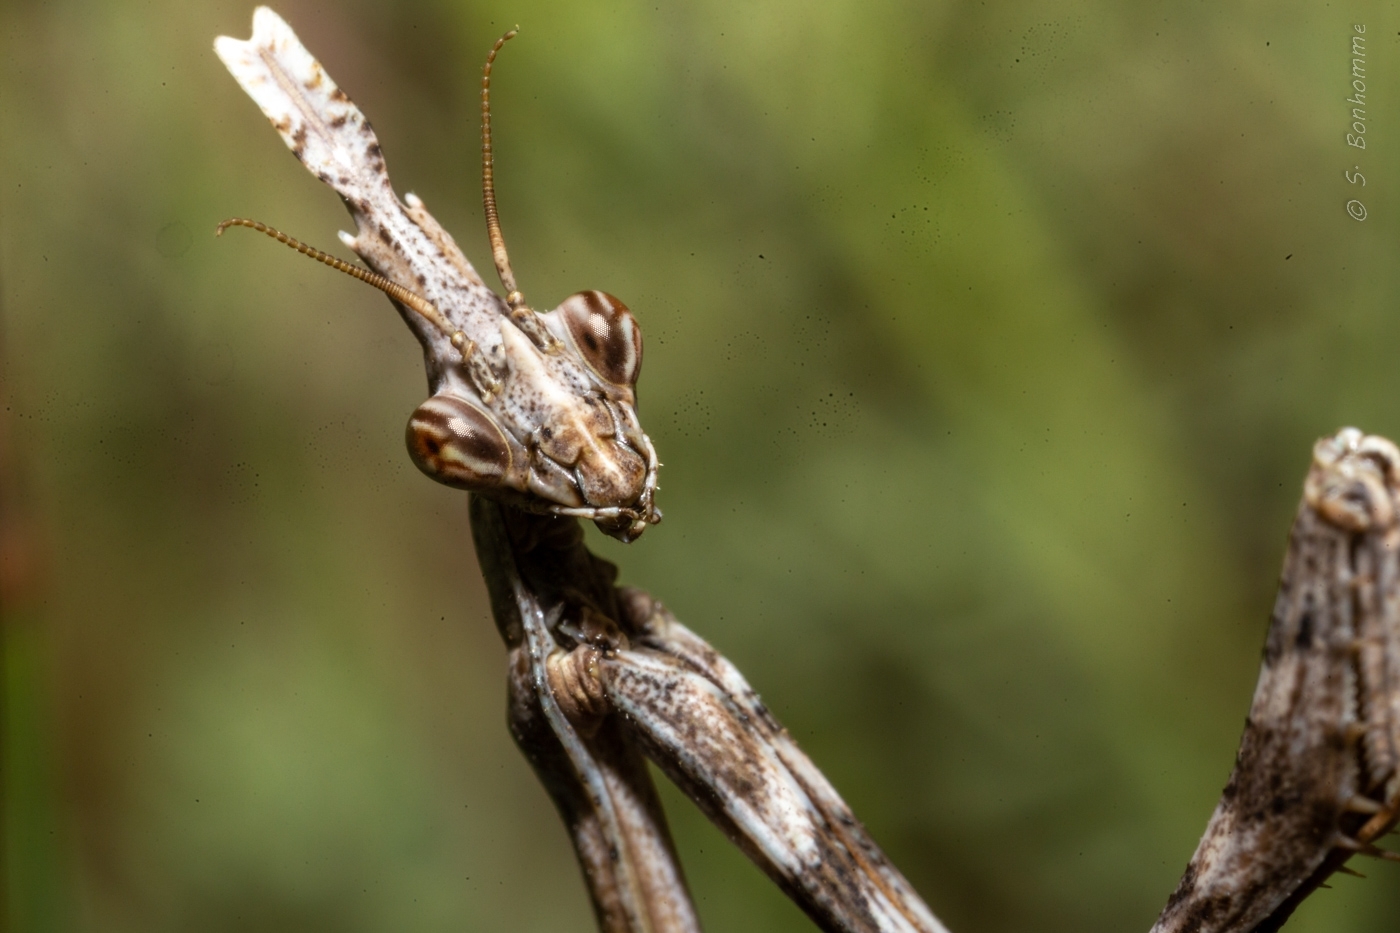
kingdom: Animalia
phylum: Arthropoda
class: Insecta
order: Mantodea
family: Empusidae
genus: Empusa
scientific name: Empusa pennata
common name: Conehead mantis
